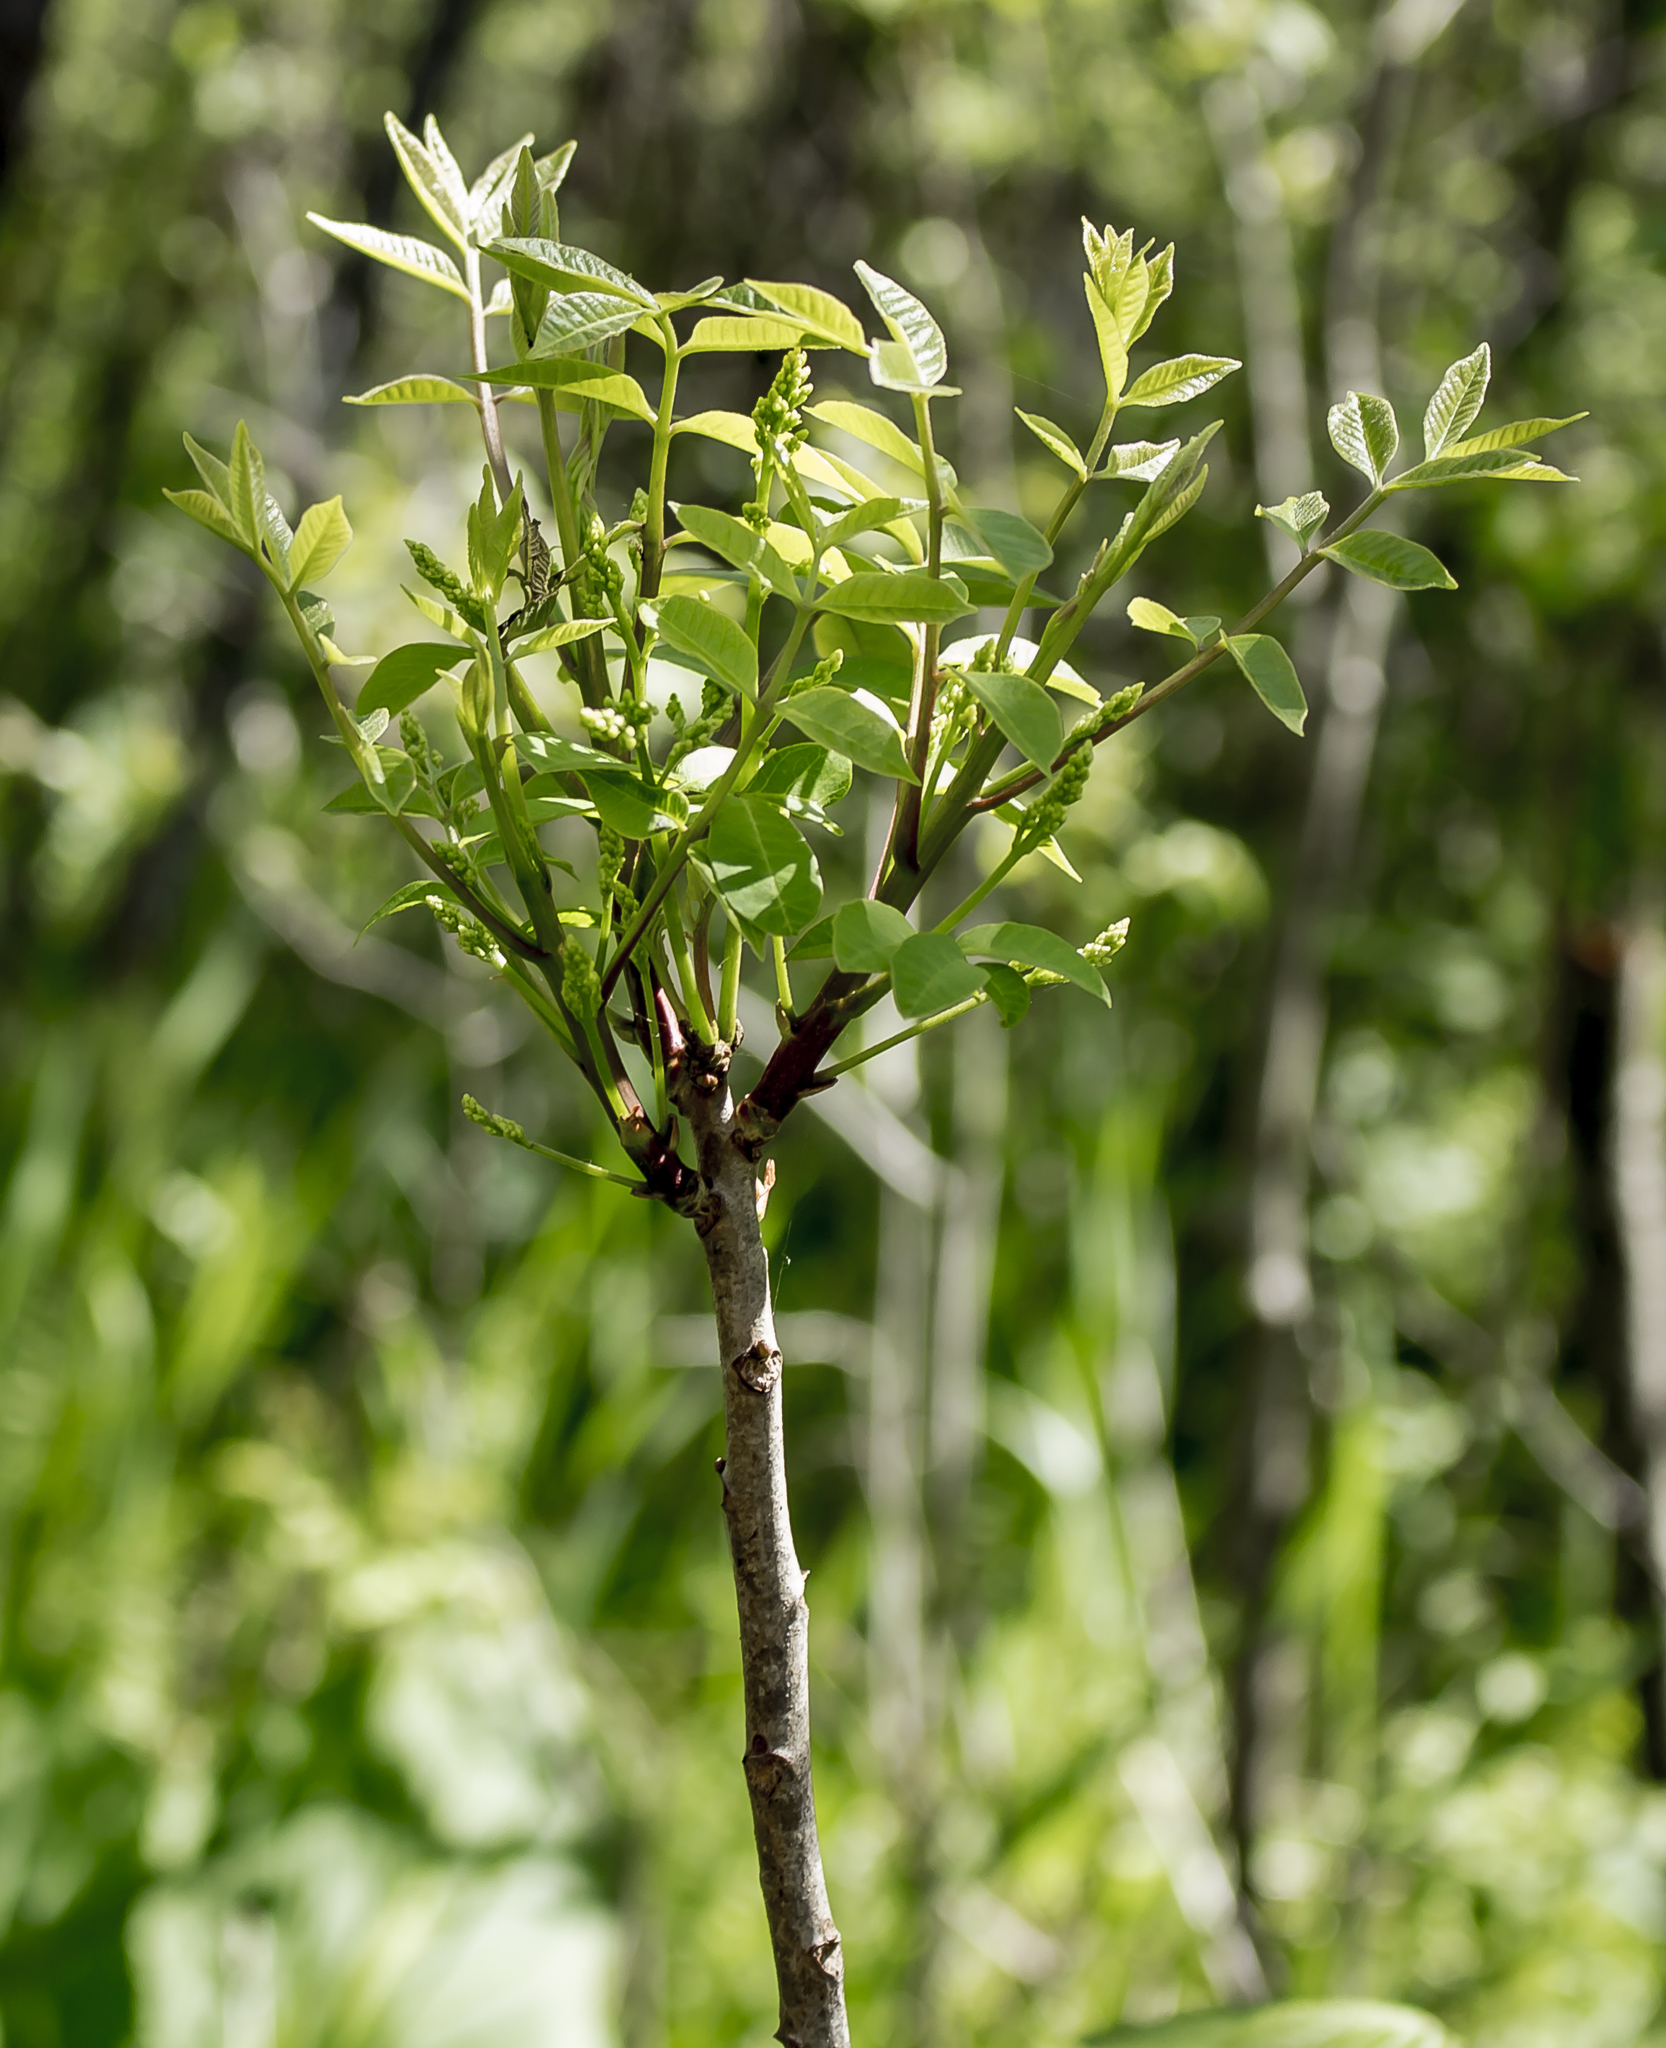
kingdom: Plantae
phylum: Tracheophyta
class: Magnoliopsida
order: Sapindales
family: Anacardiaceae
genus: Toxicodendron
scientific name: Toxicodendron vernix
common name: Poison sumac
